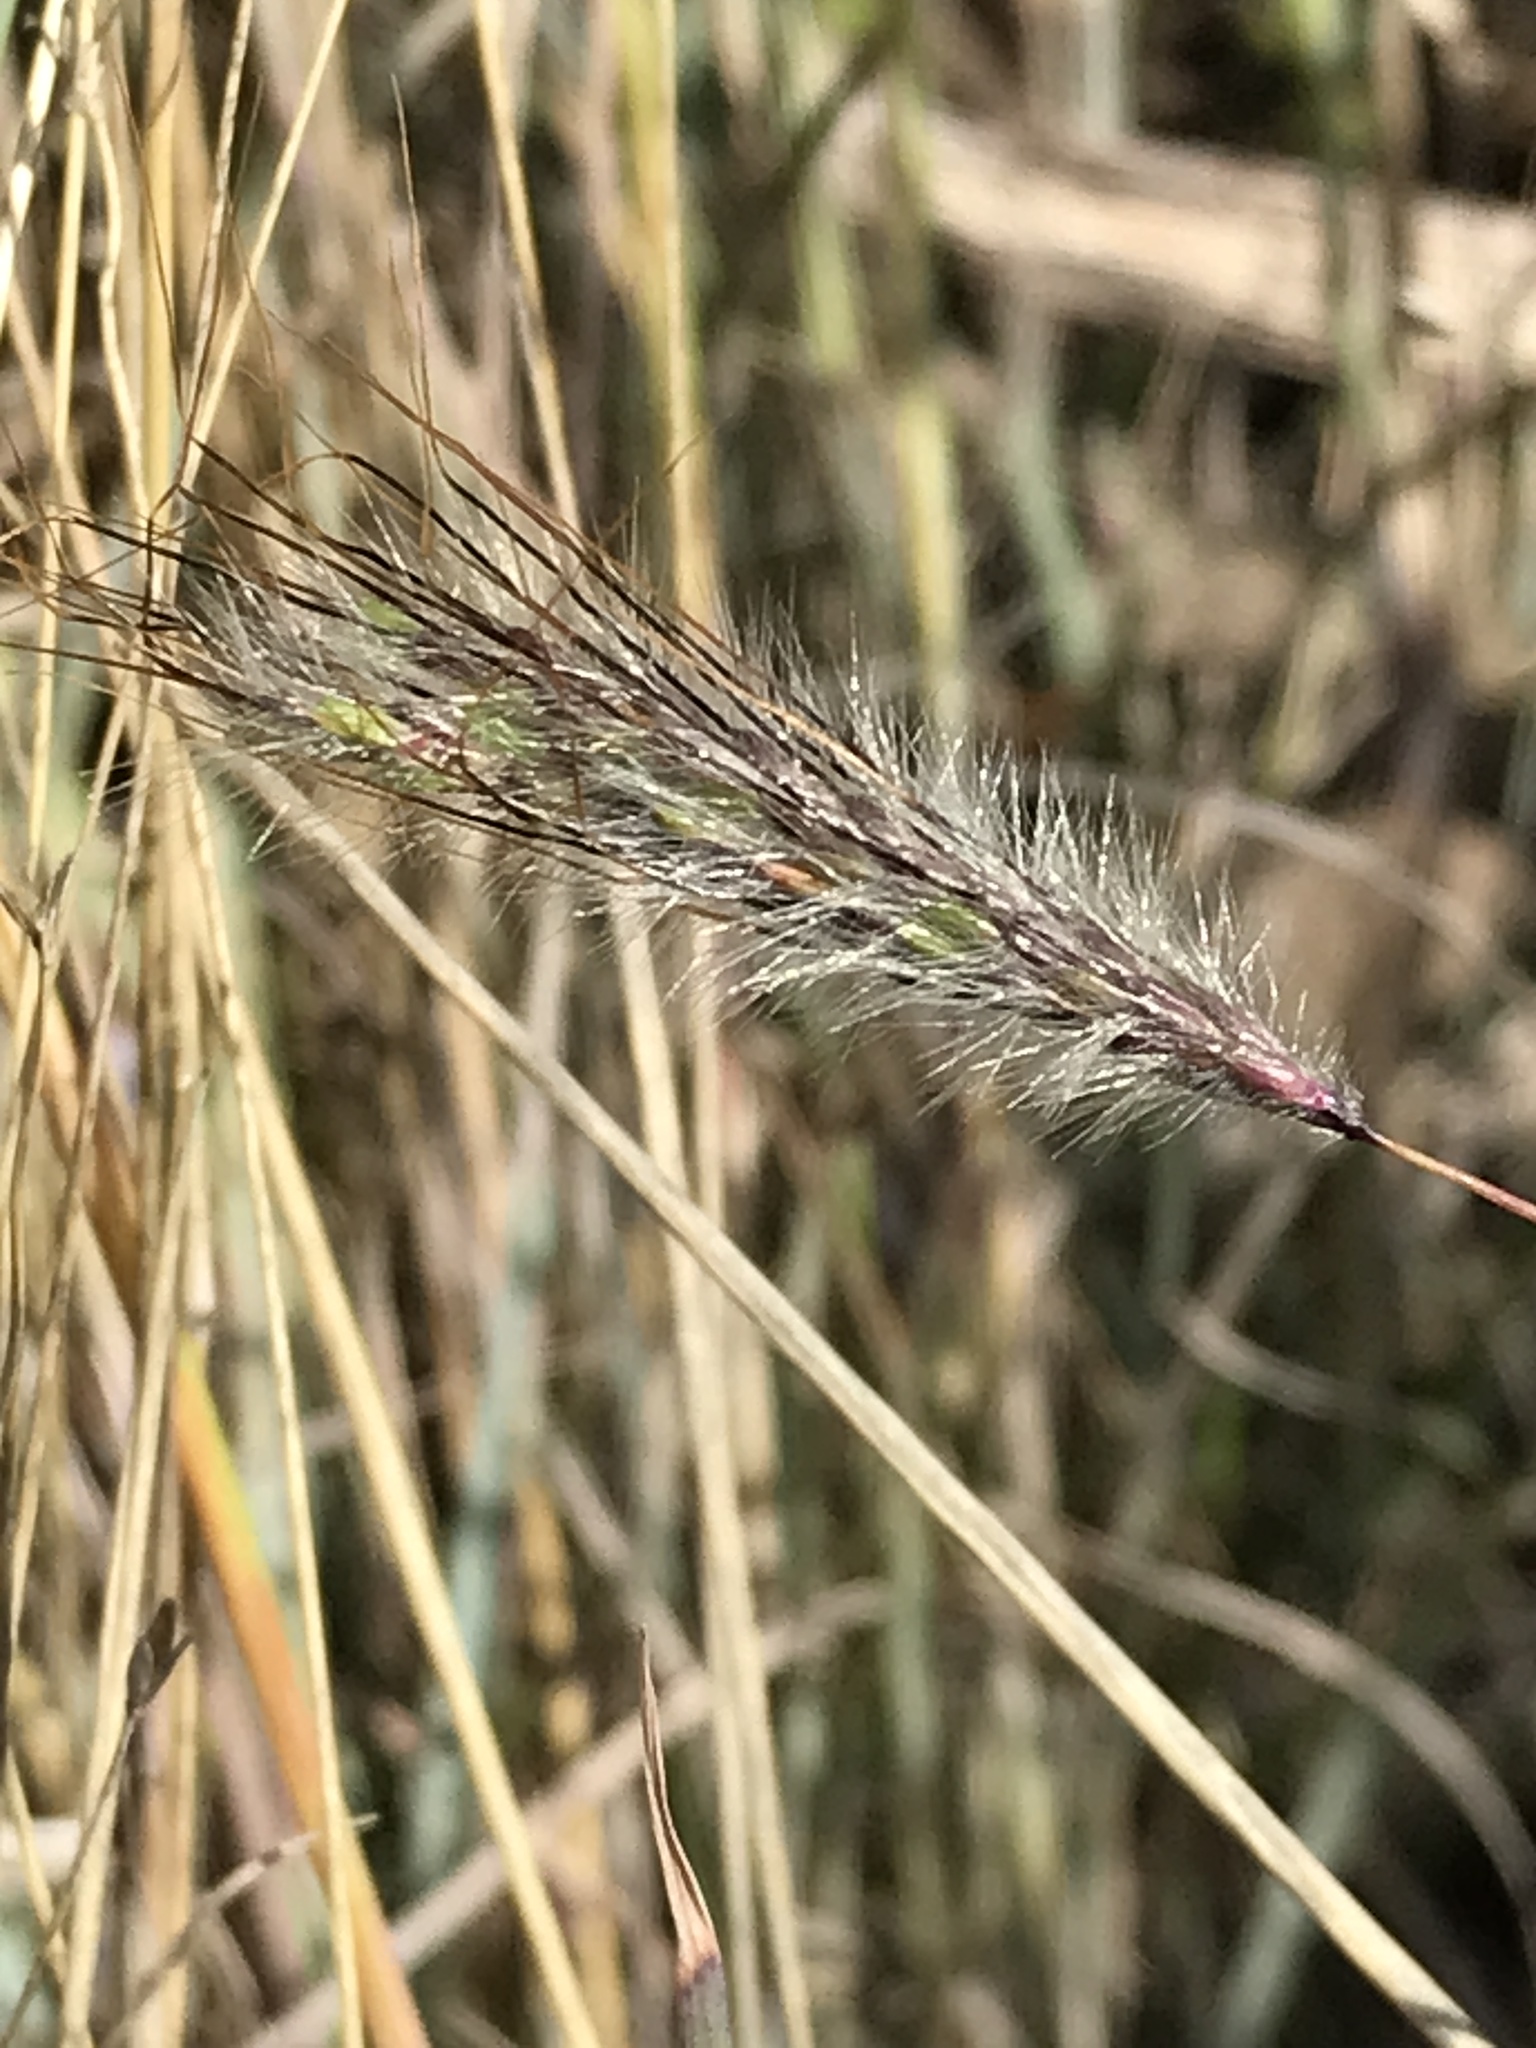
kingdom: Plantae
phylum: Tracheophyta
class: Liliopsida
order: Poales
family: Poaceae
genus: Dichanthium
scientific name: Dichanthium sericeum
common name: Silky bluestem
